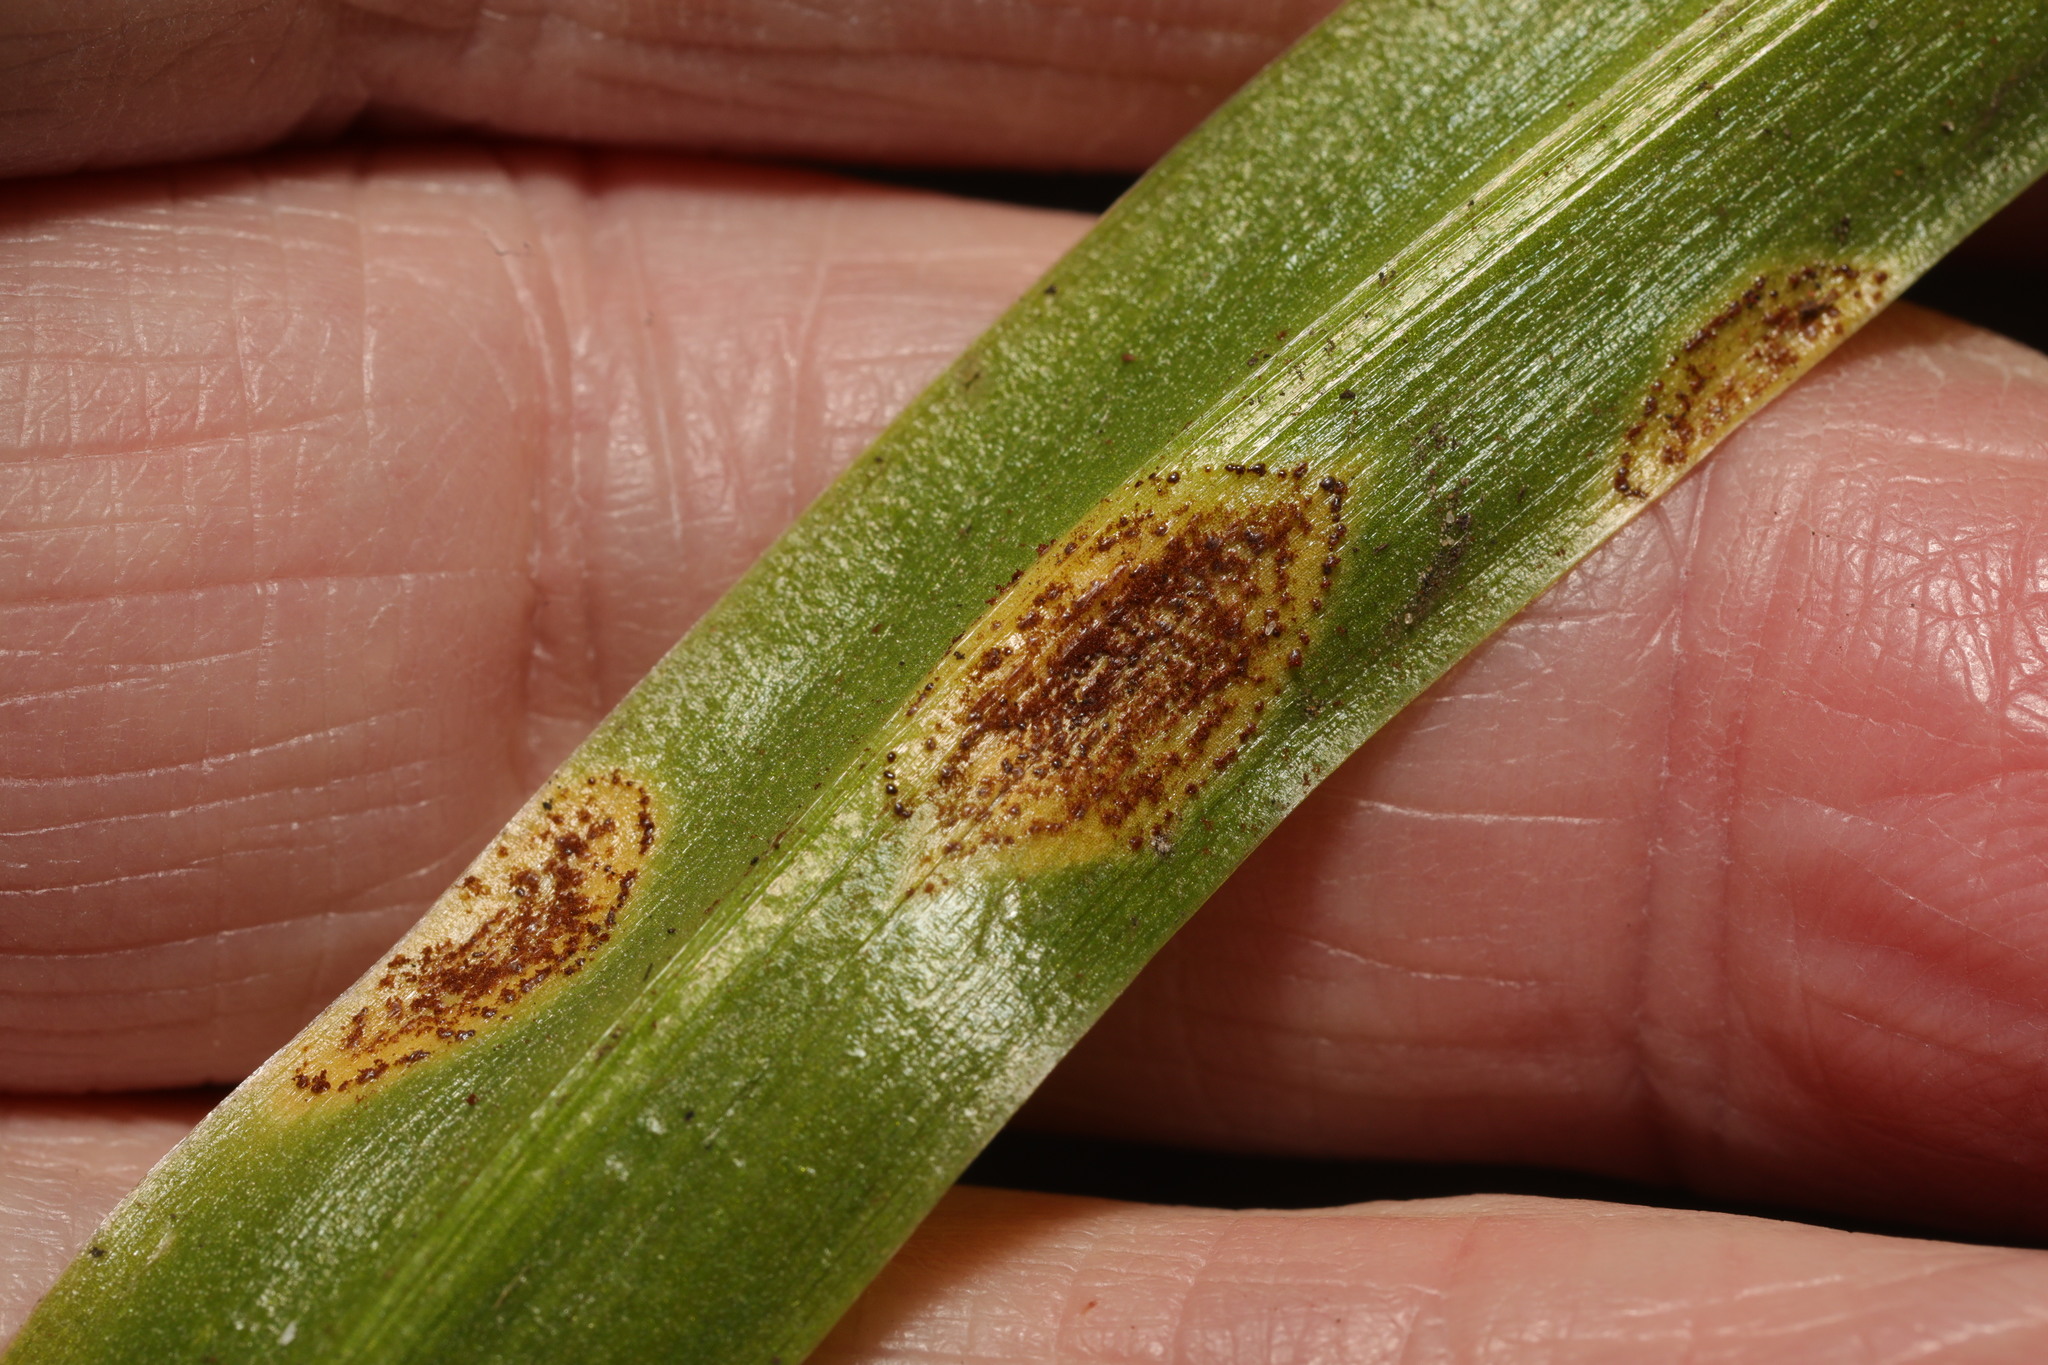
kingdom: Fungi
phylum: Basidiomycota
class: Pucciniomycetes
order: Pucciniales
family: Pucciniaceae
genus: Uromyces
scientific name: Uromyces hyacinthi
